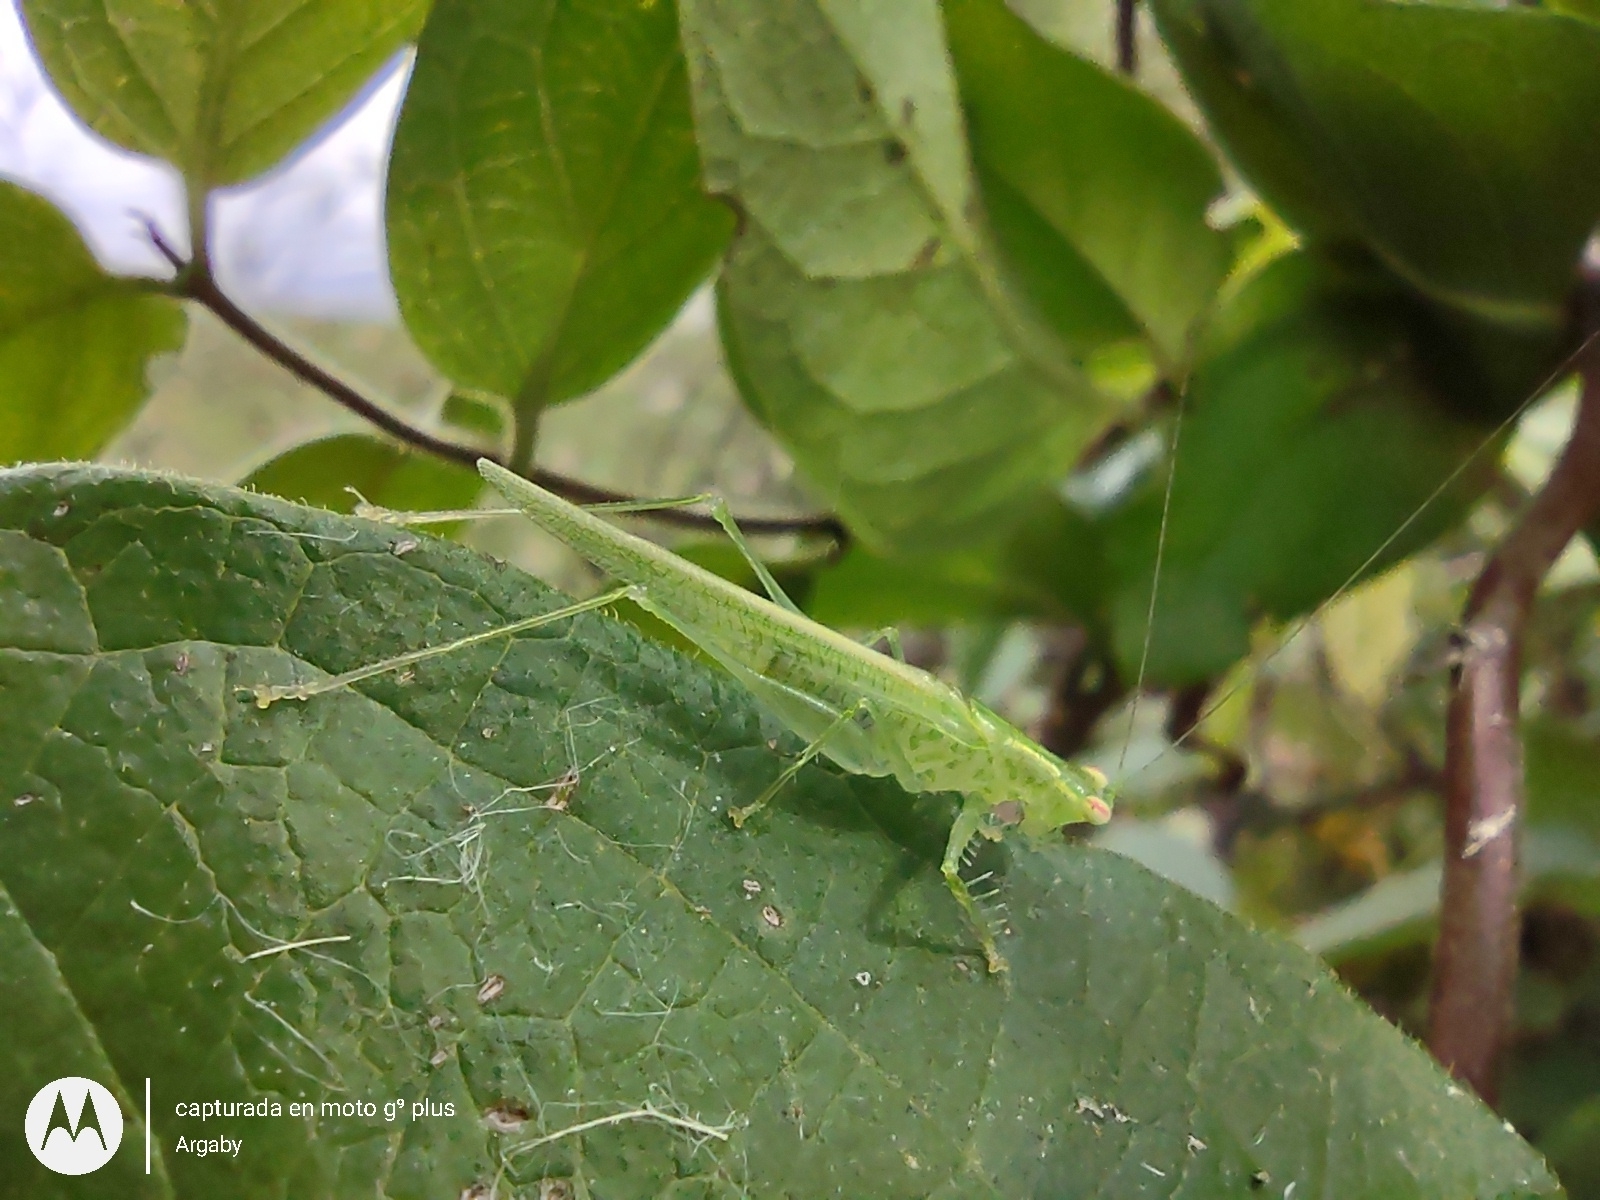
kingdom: Animalia
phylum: Arthropoda
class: Insecta
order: Orthoptera
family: Tettigoniidae
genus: Phlugis
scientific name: Phlugis virens
